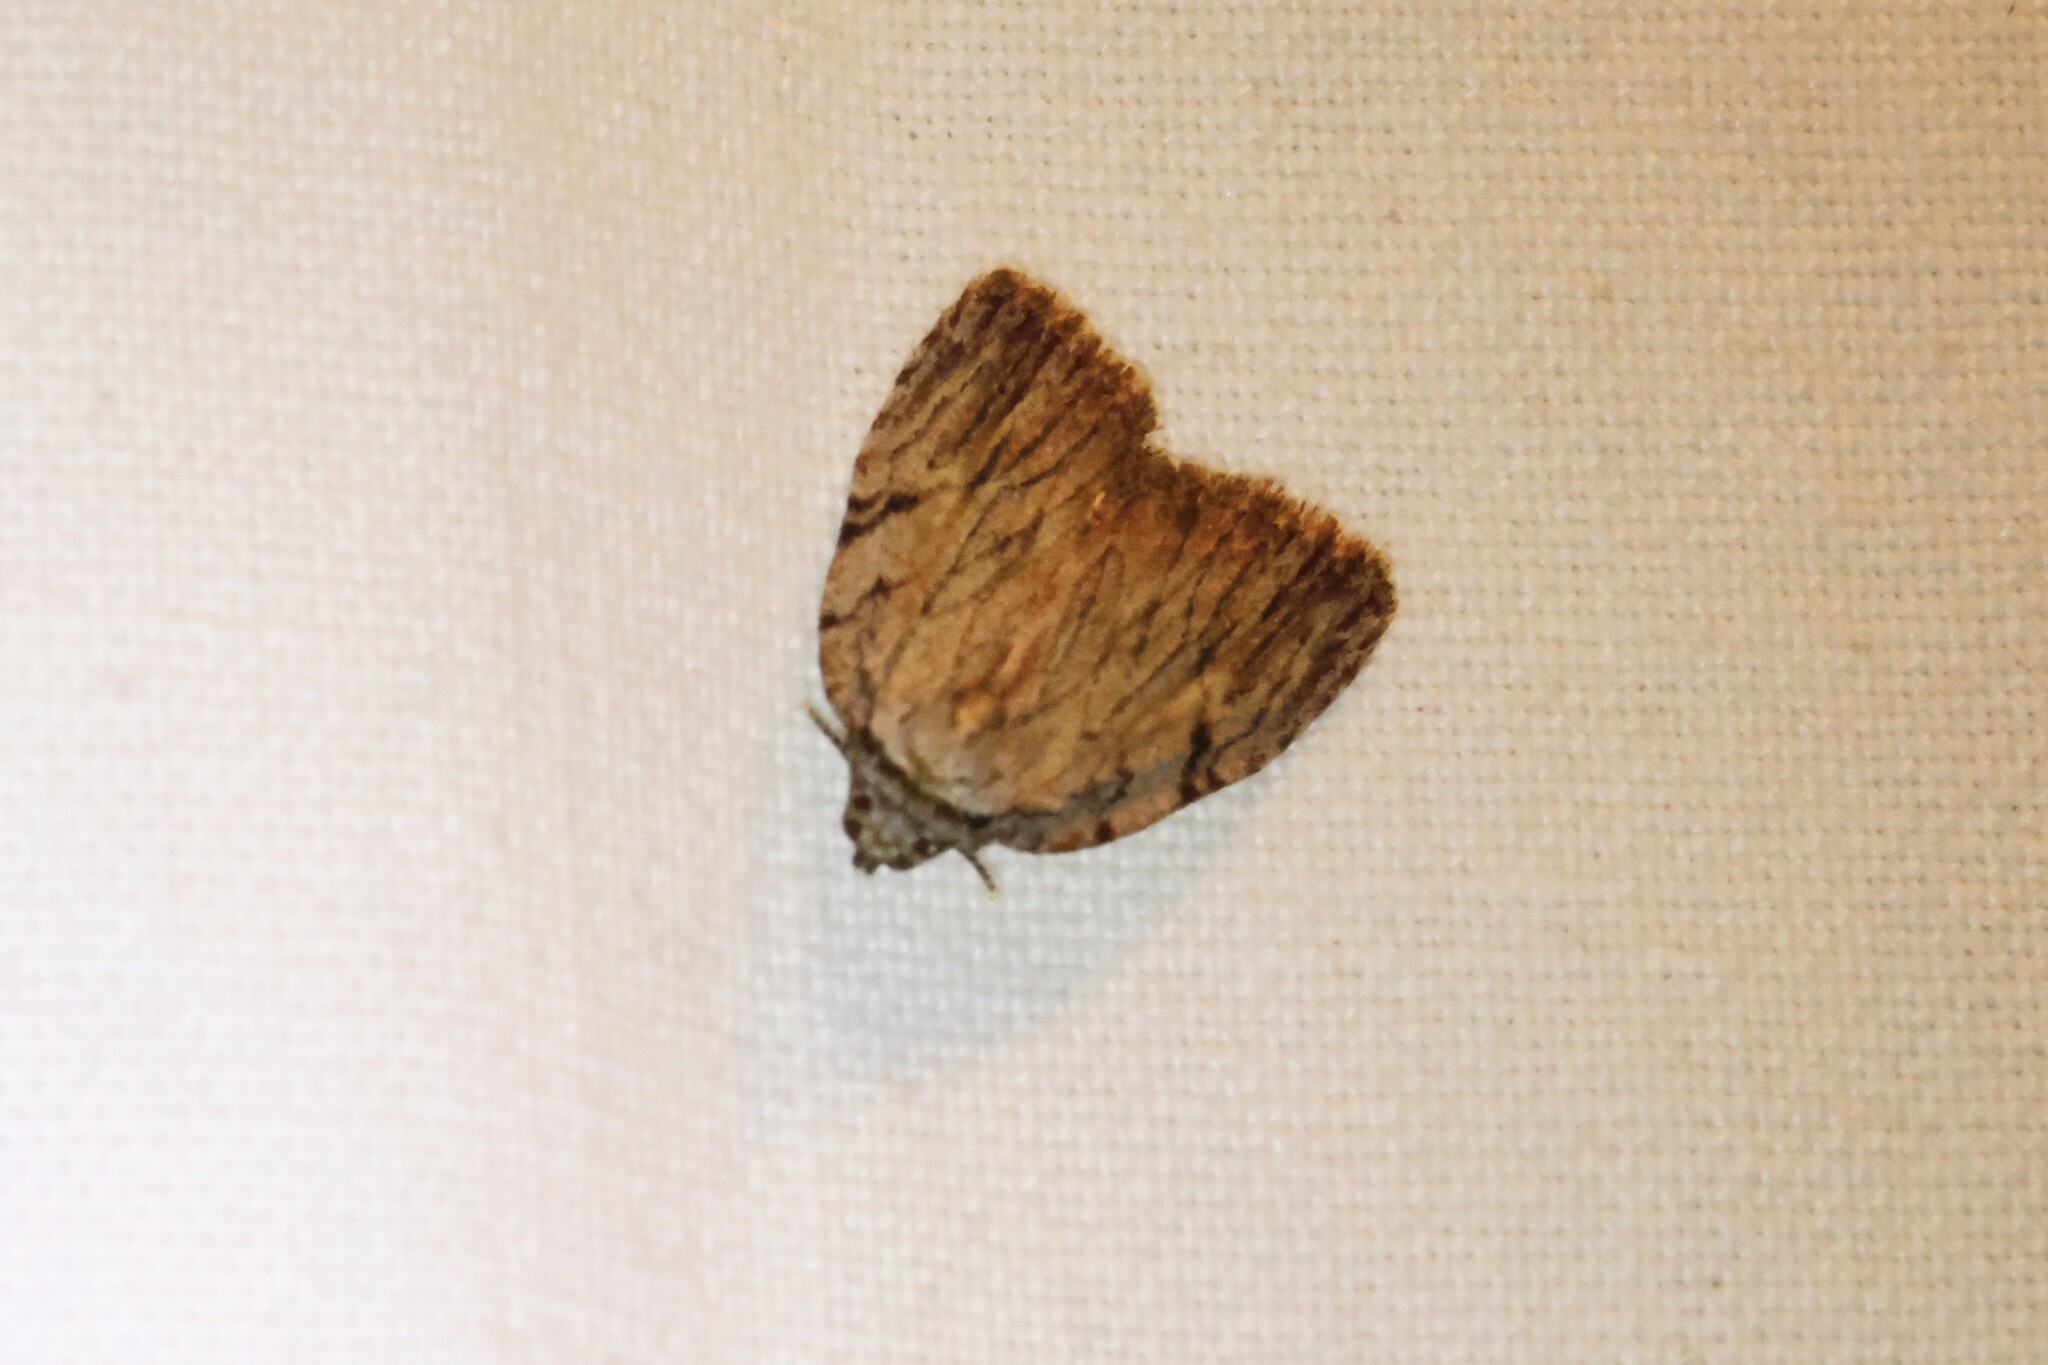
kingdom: Animalia
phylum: Arthropoda
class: Insecta
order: Lepidoptera
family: Noctuidae
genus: Balsa
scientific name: Balsa tristrigella
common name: Three-lined balsa moth
